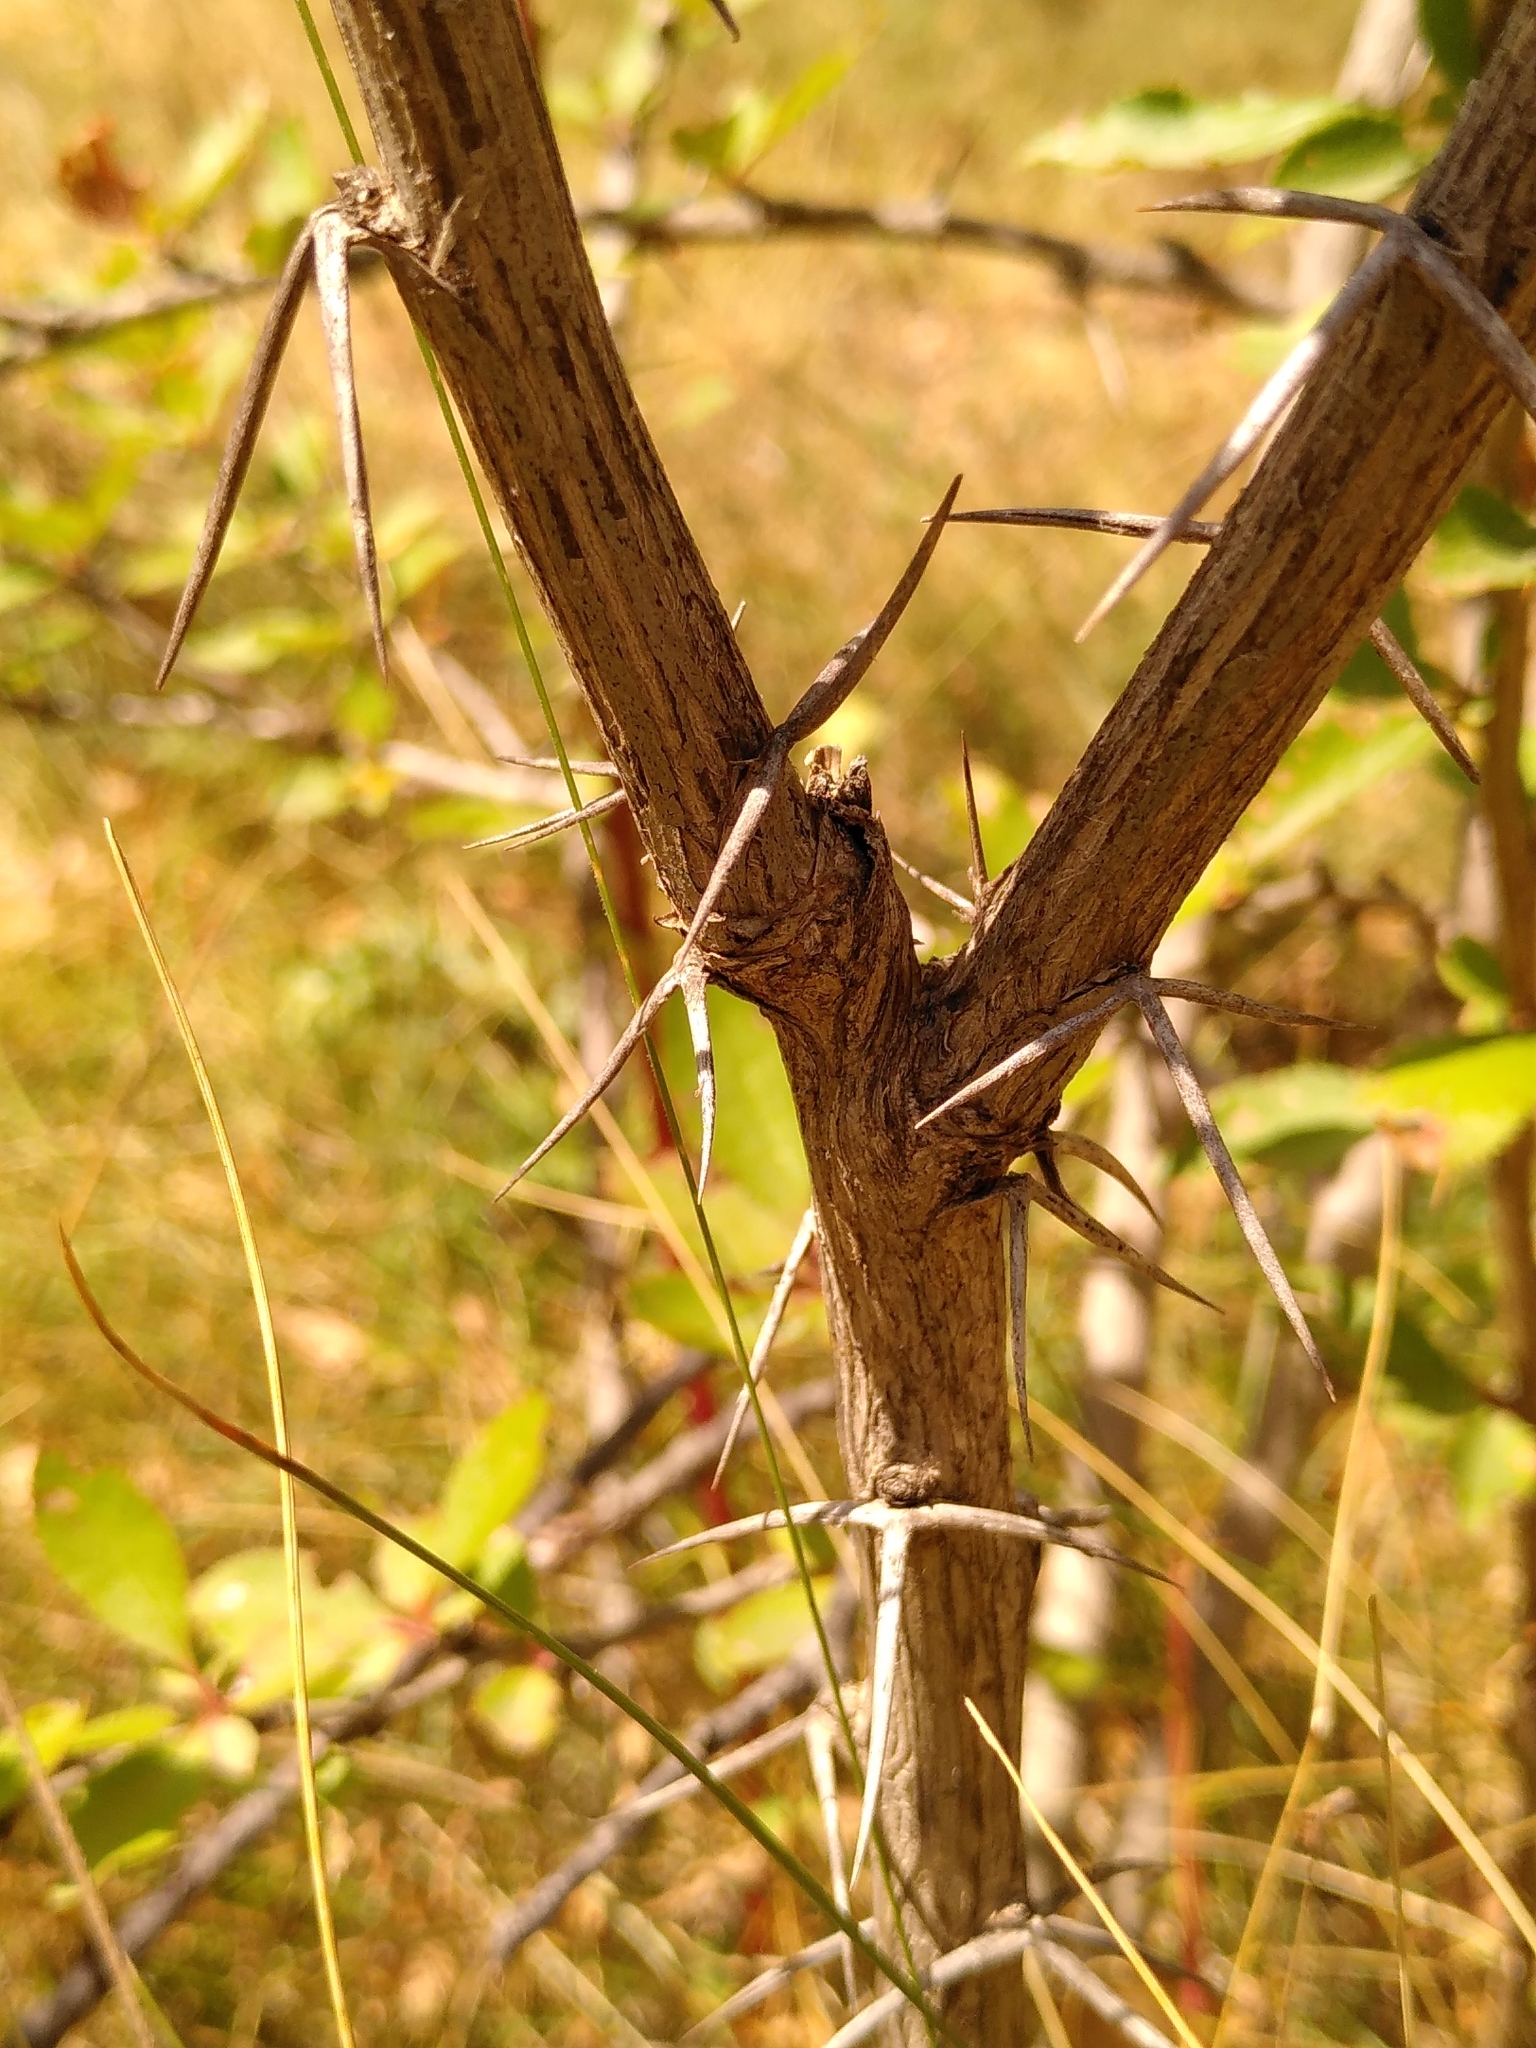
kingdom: Plantae
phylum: Tracheophyta
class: Magnoliopsida
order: Ranunculales
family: Berberidaceae
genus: Berberis
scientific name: Berberis vulgaris
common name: Barberry
